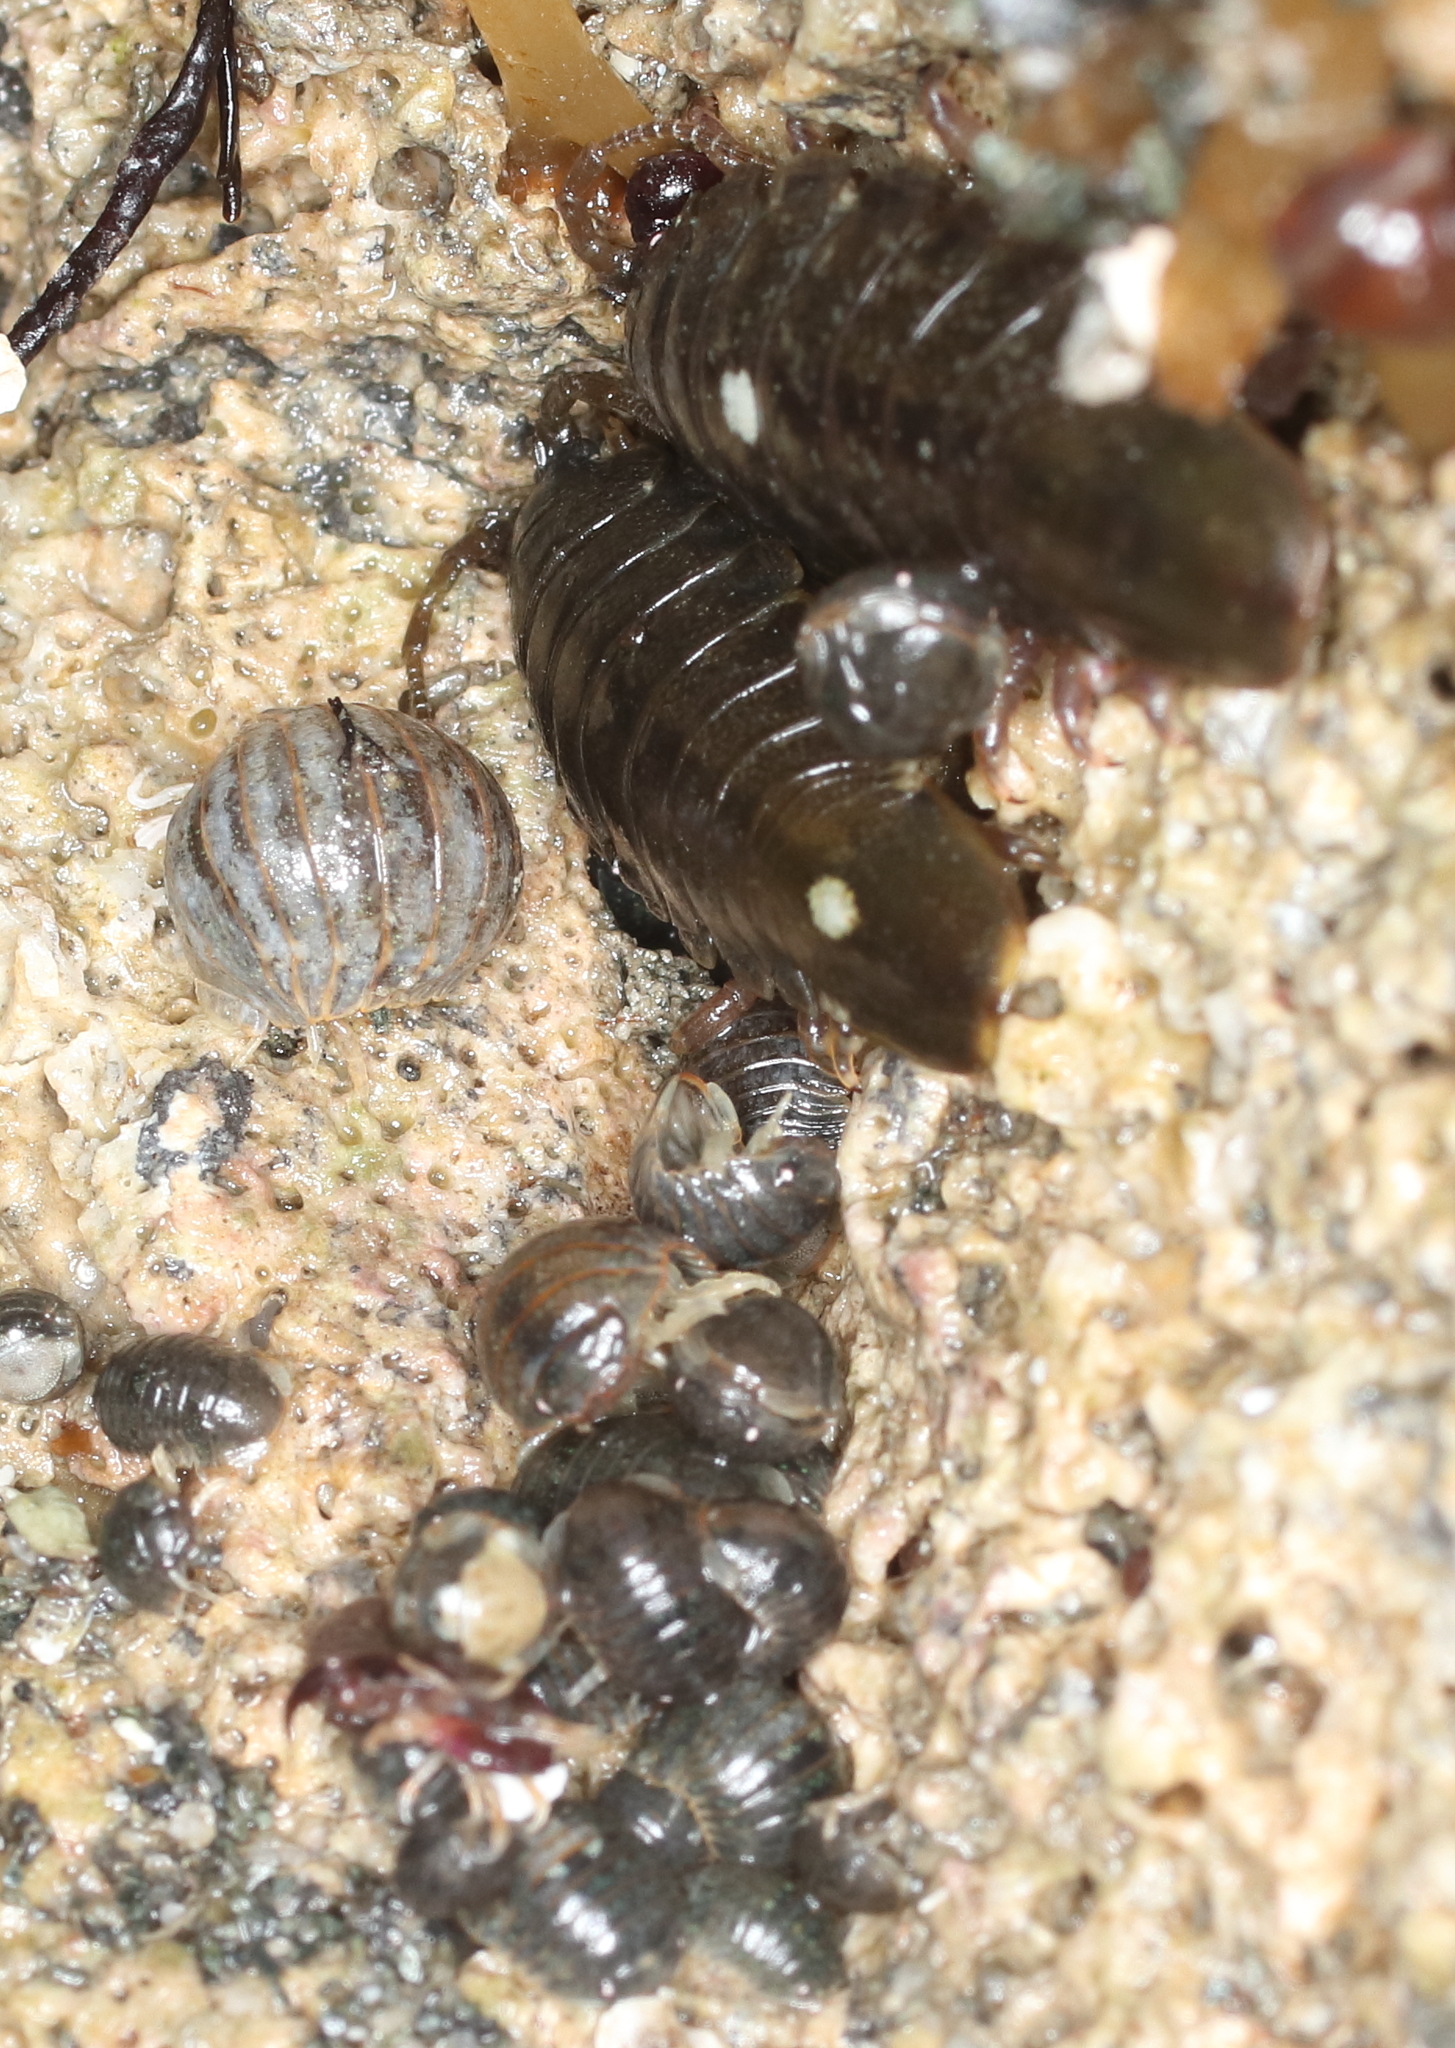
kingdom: Animalia
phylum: Arthropoda
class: Malacostraca
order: Isopoda
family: Sphaeromatidae
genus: Gnorimosphaeroma
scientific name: Gnorimosphaeroma oregonense
